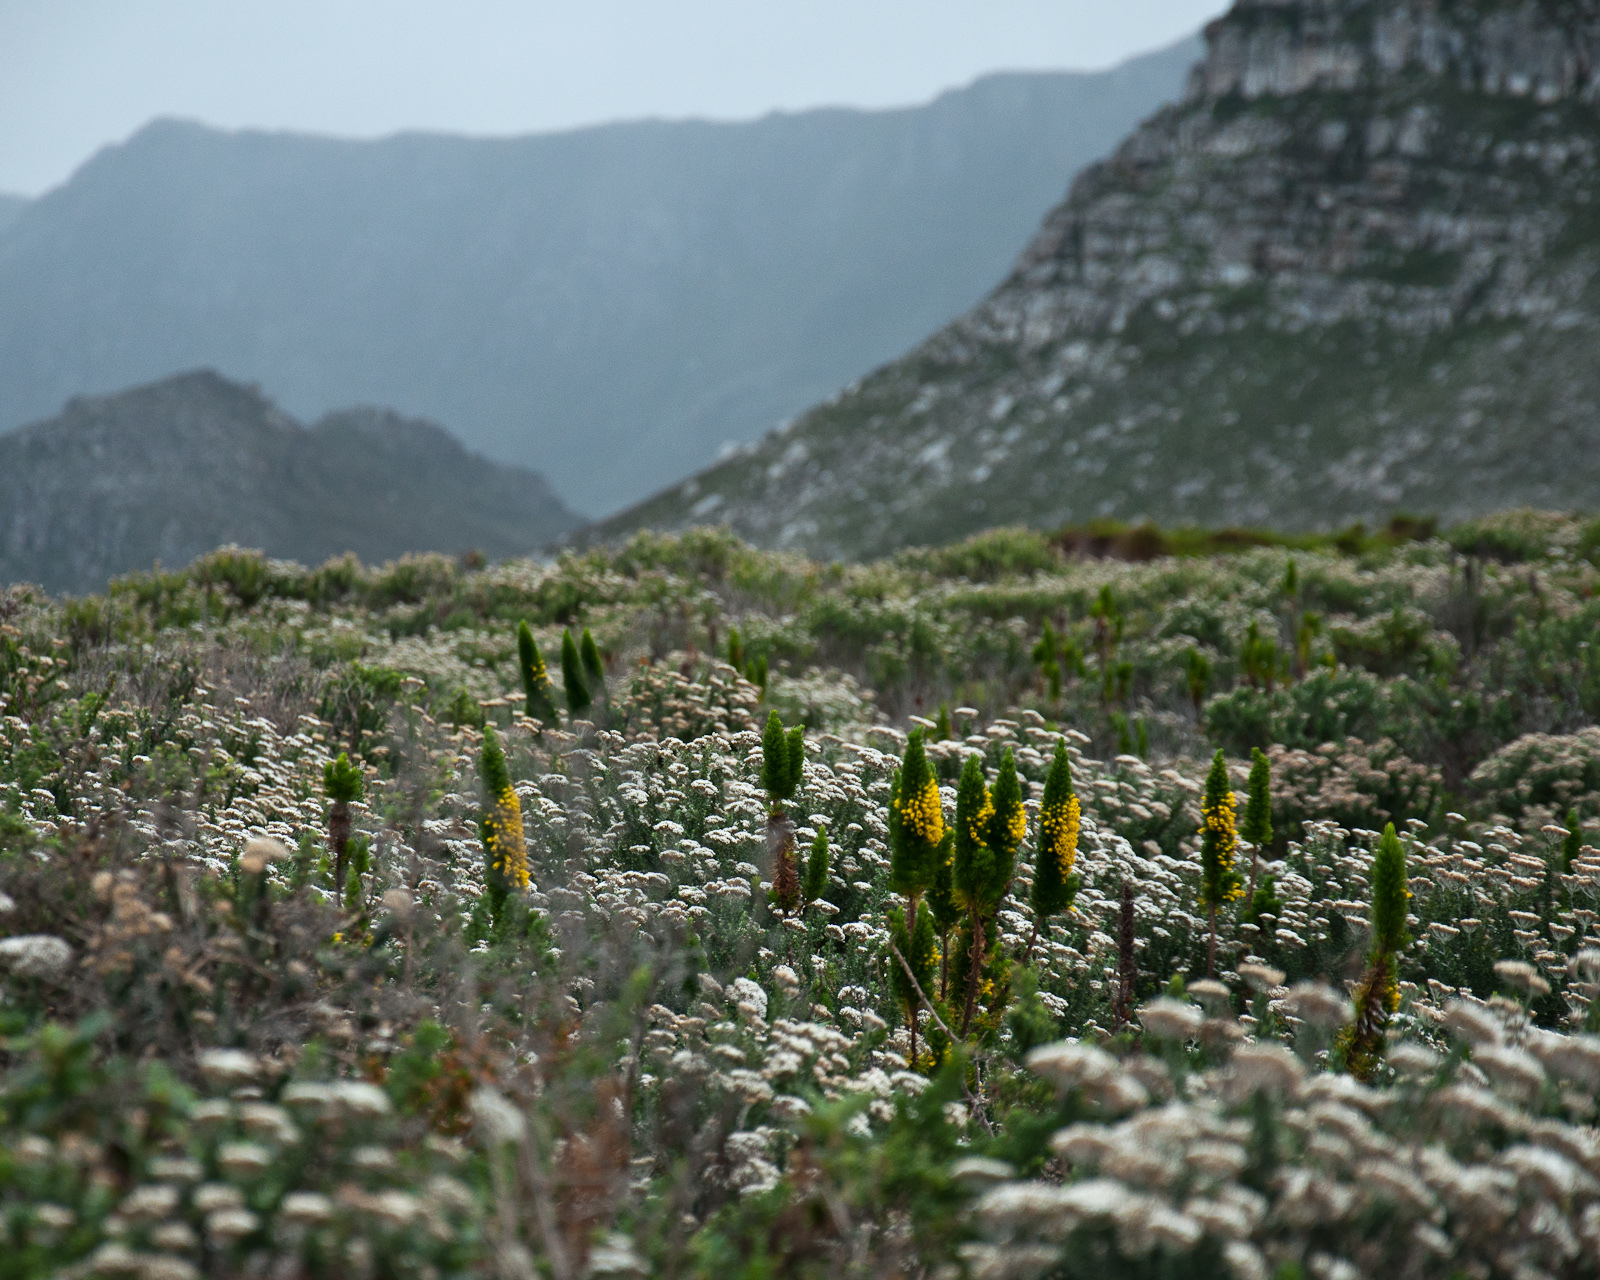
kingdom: Plantae
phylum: Tracheophyta
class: Magnoliopsida
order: Ericales
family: Ericaceae
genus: Erica
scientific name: Erica patersonia
